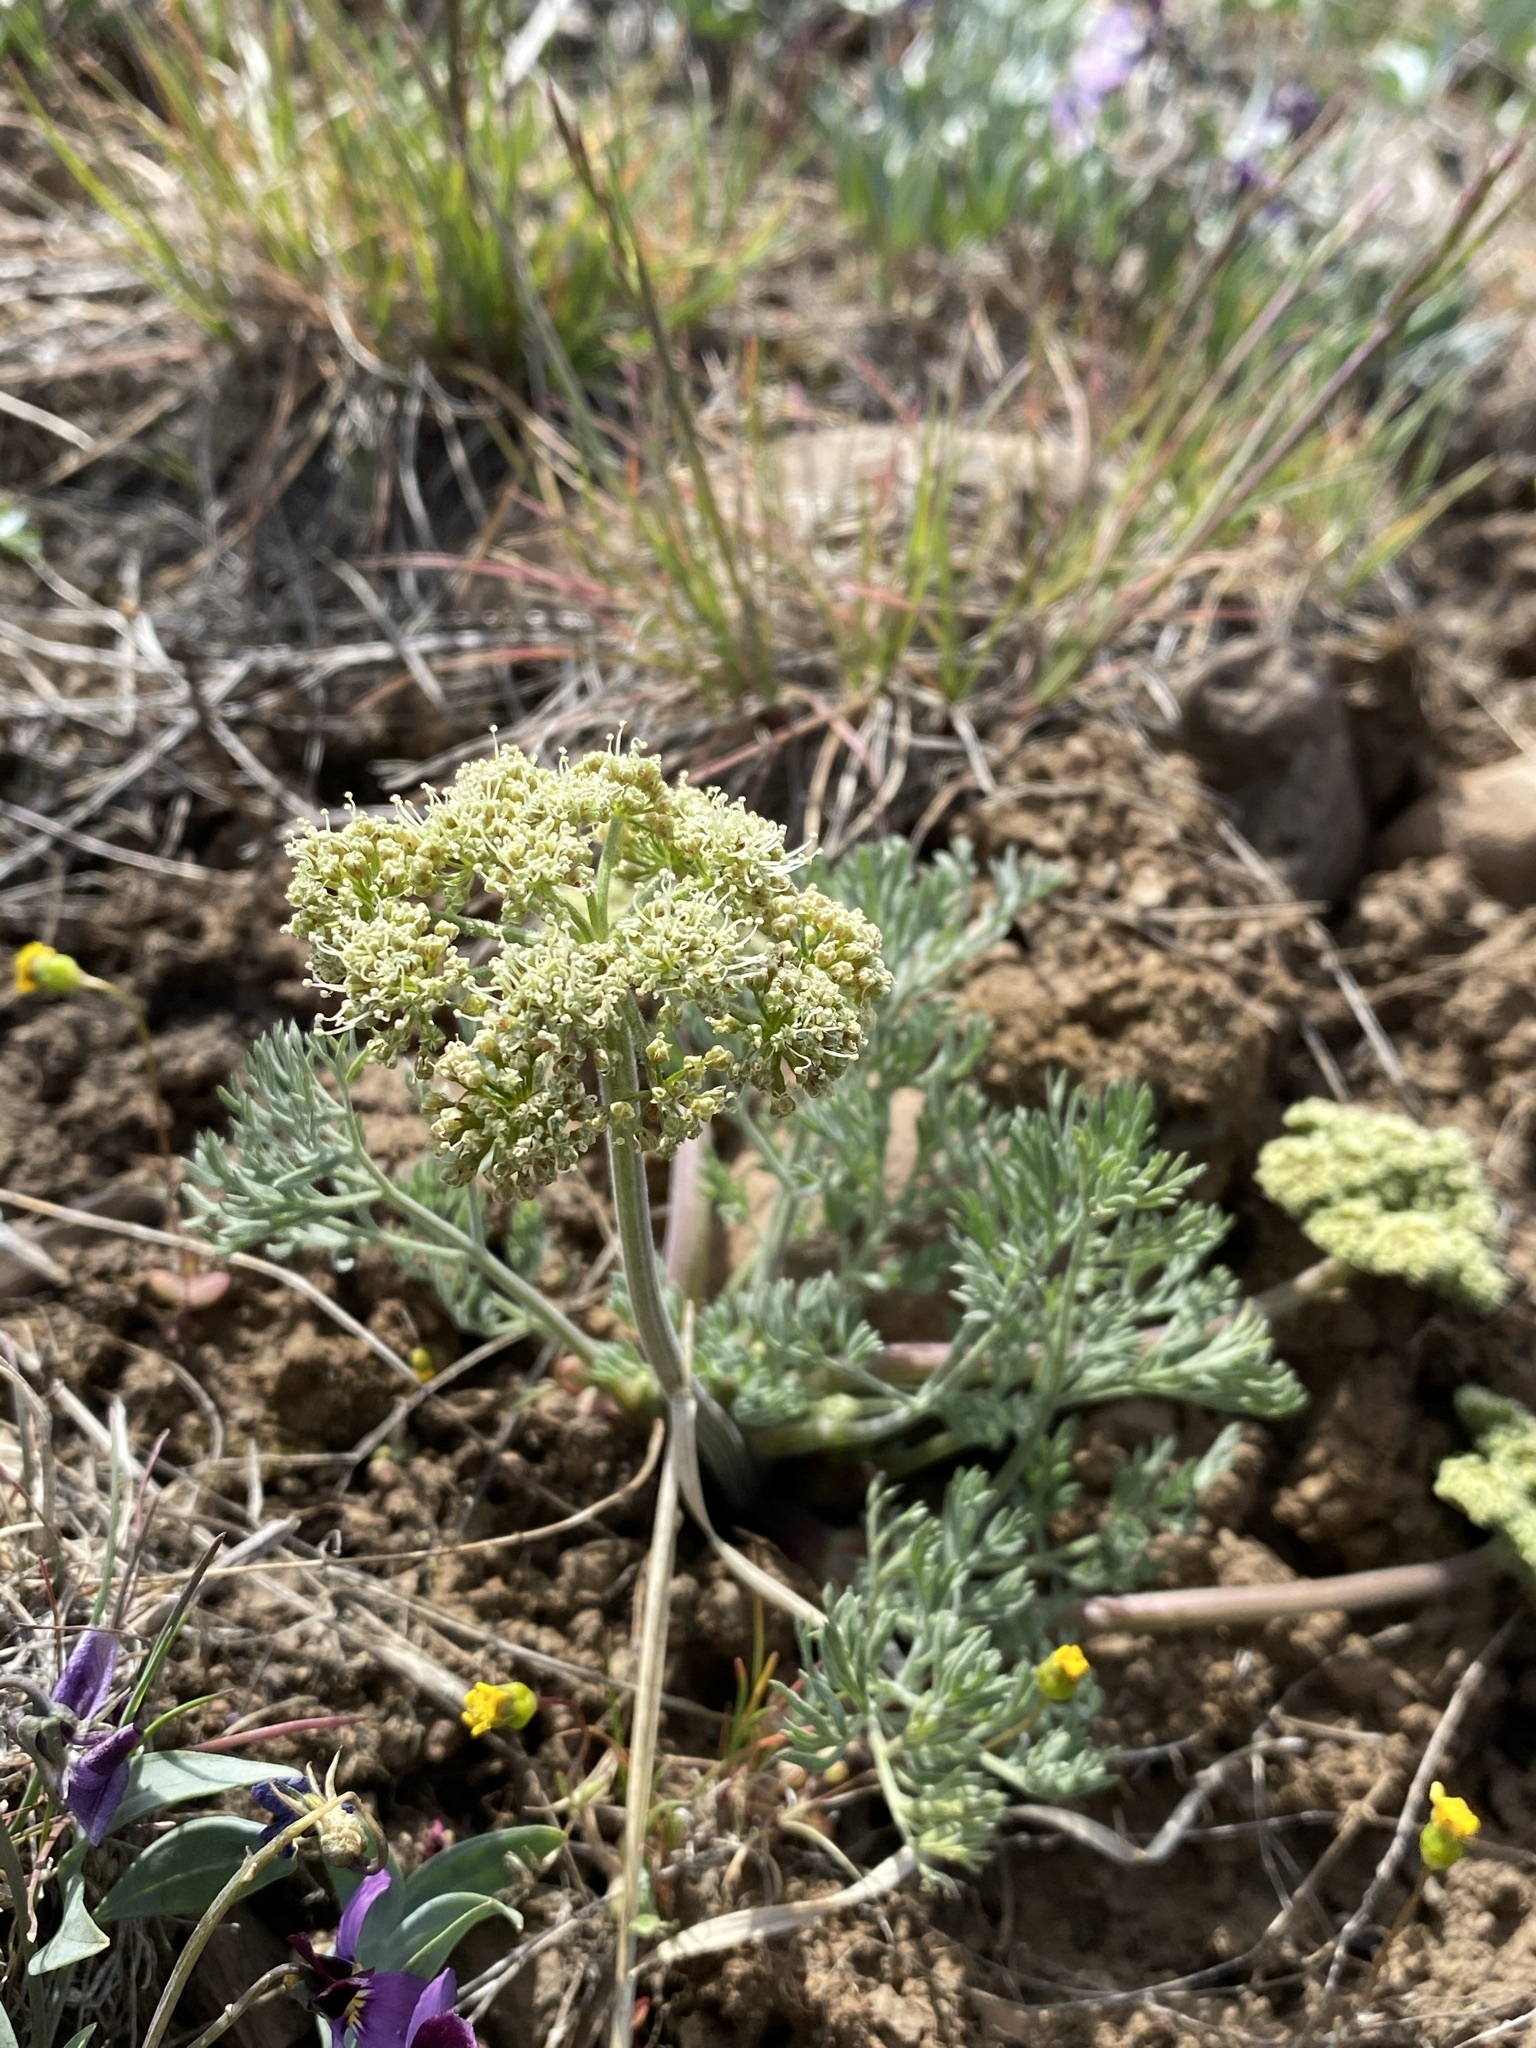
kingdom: Plantae
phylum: Tracheophyta
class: Magnoliopsida
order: Apiales
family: Apiaceae
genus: Lomatium
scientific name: Lomatium macrocarpum
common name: Big-seed biscuitroot
